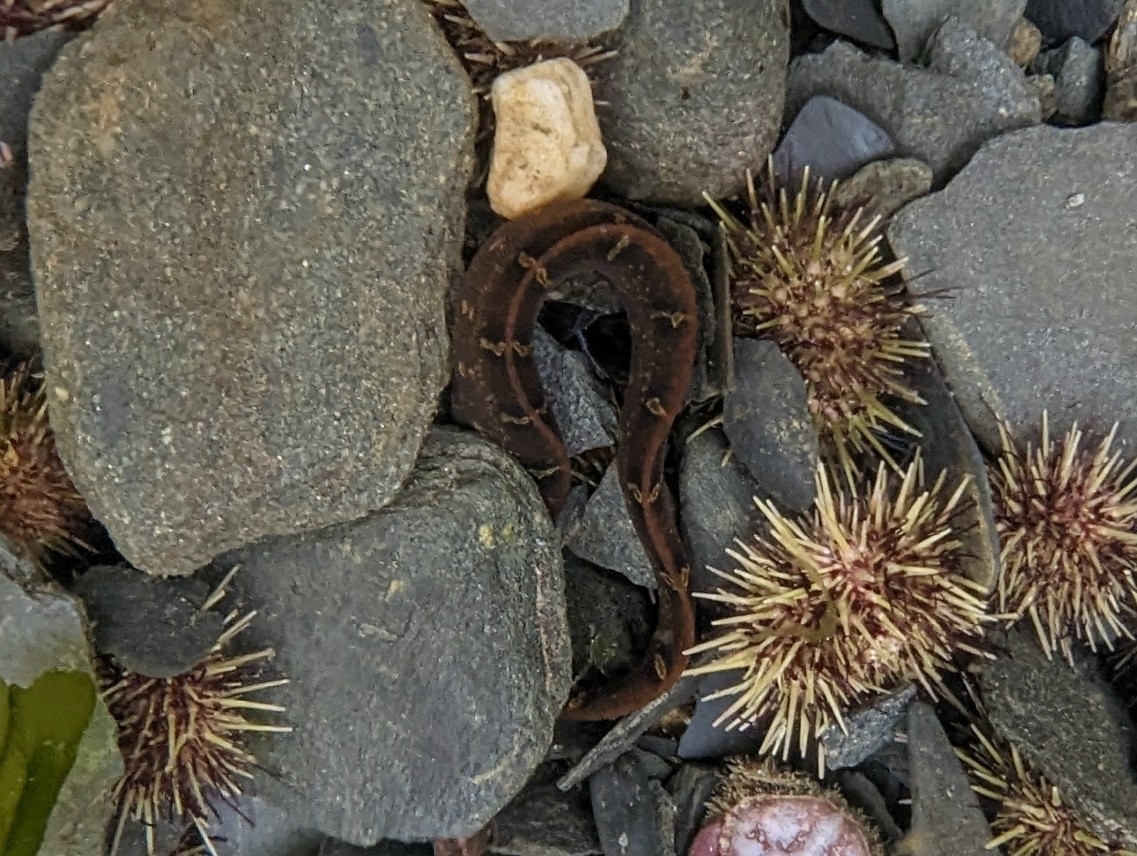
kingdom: Animalia
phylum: Chordata
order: Perciformes
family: Pholidae
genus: Pholis
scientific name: Pholis laeta
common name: Crescent gunnel
